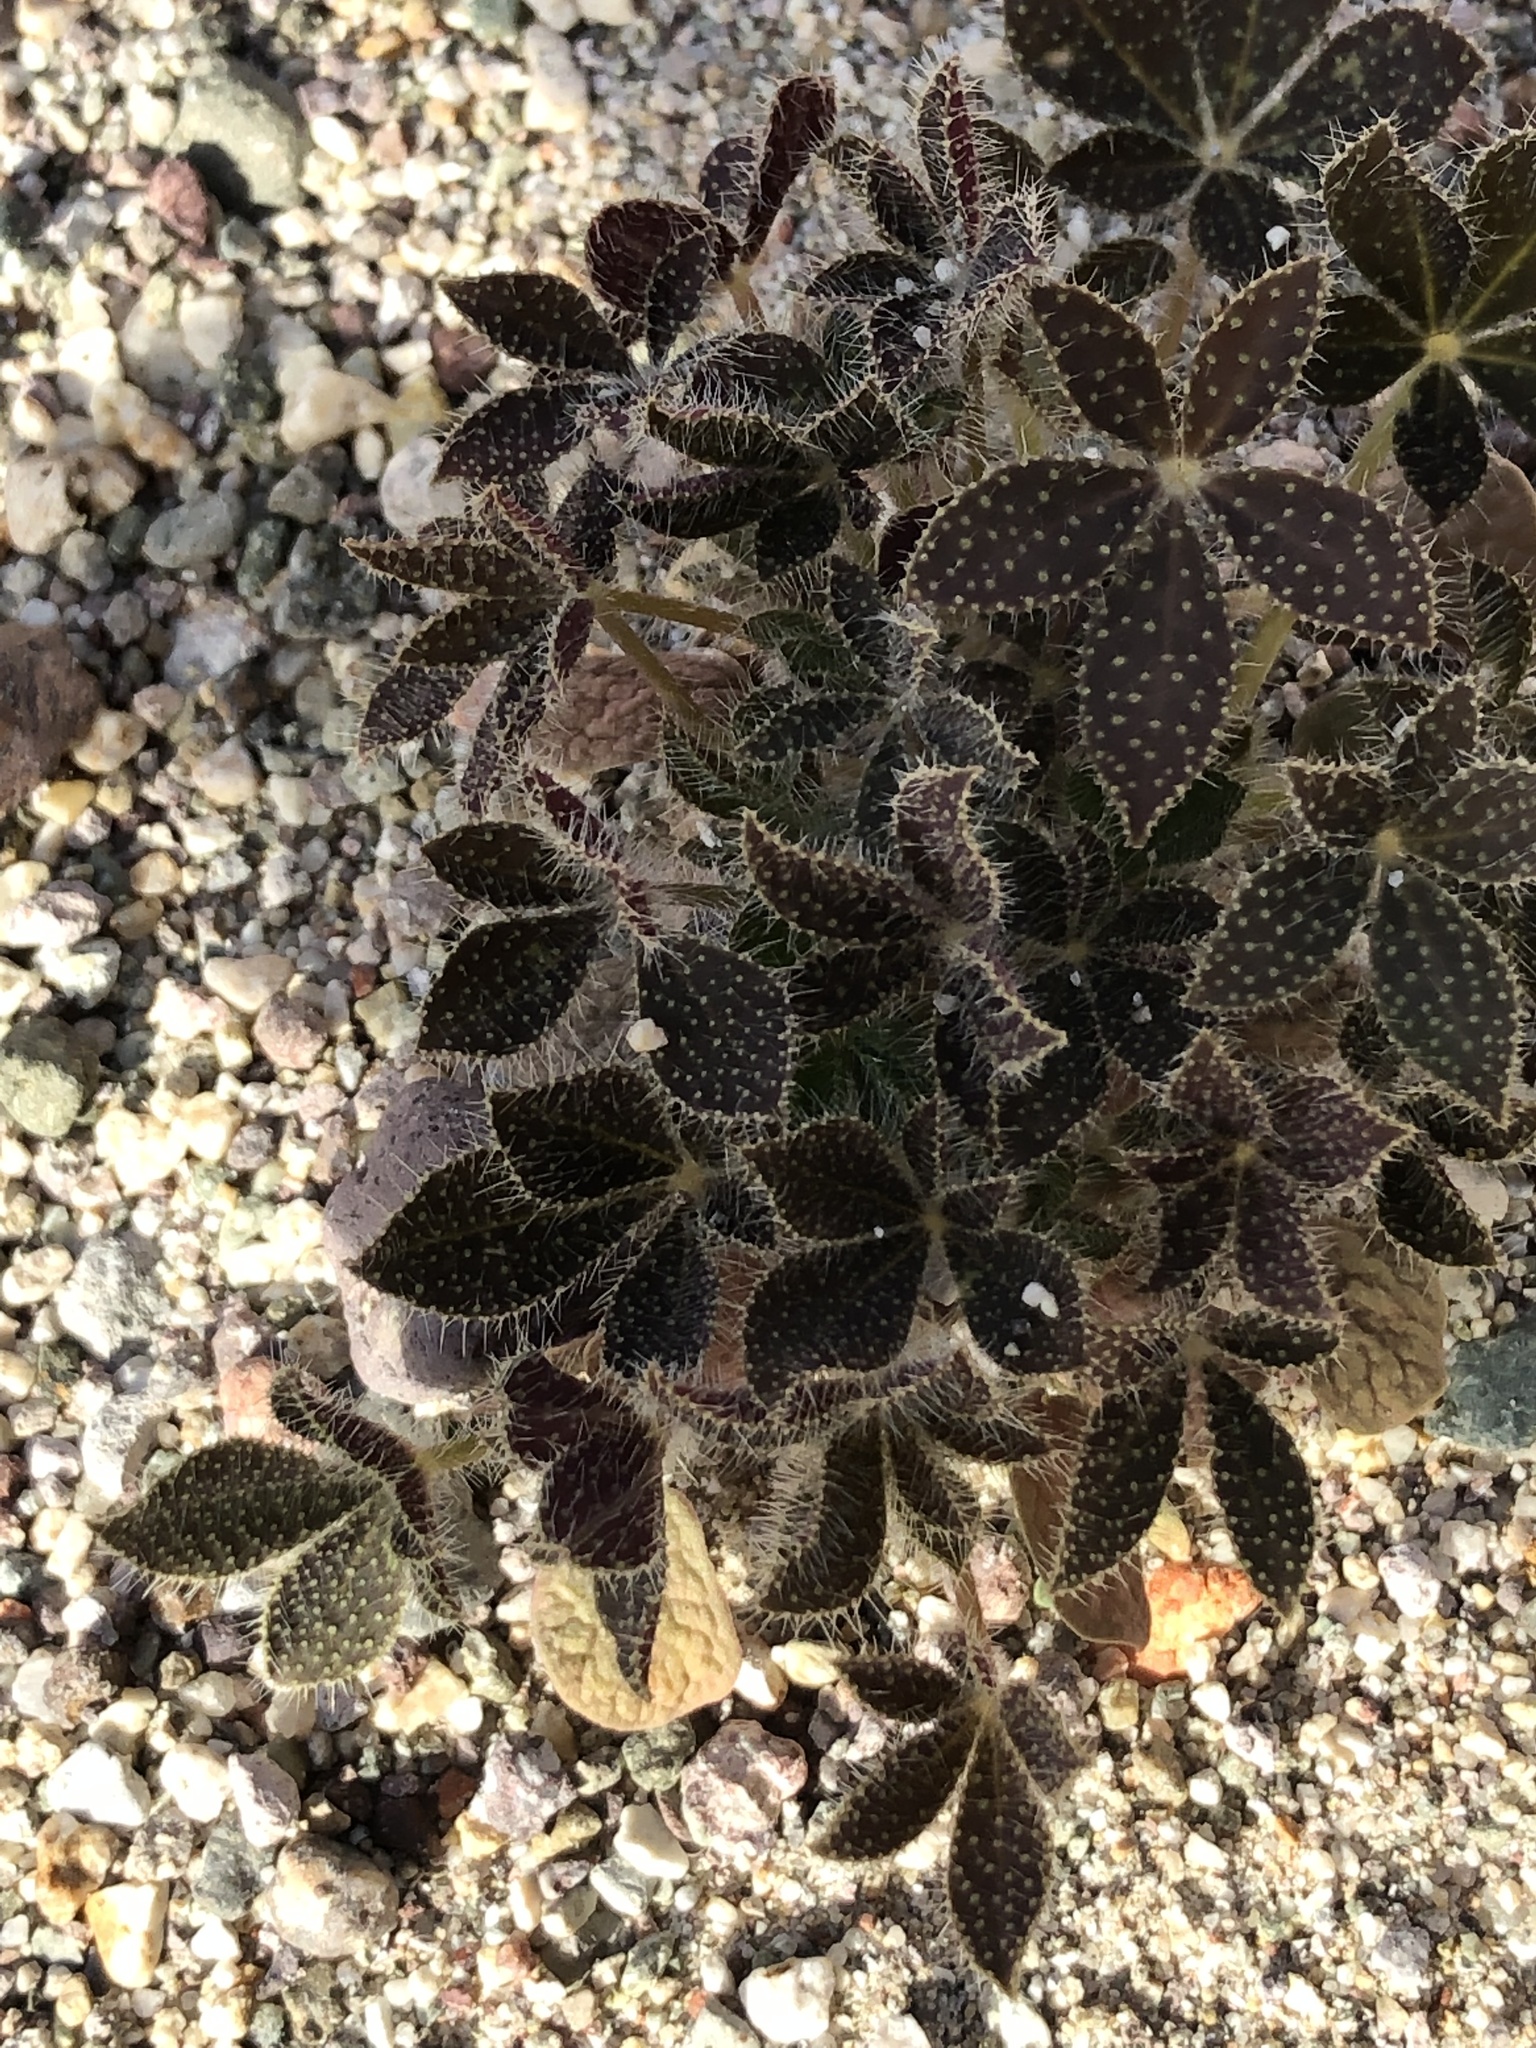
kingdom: Plantae
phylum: Tracheophyta
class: Magnoliopsida
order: Fabales
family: Fabaceae
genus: Lupinus
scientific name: Lupinus hirsutissimus
